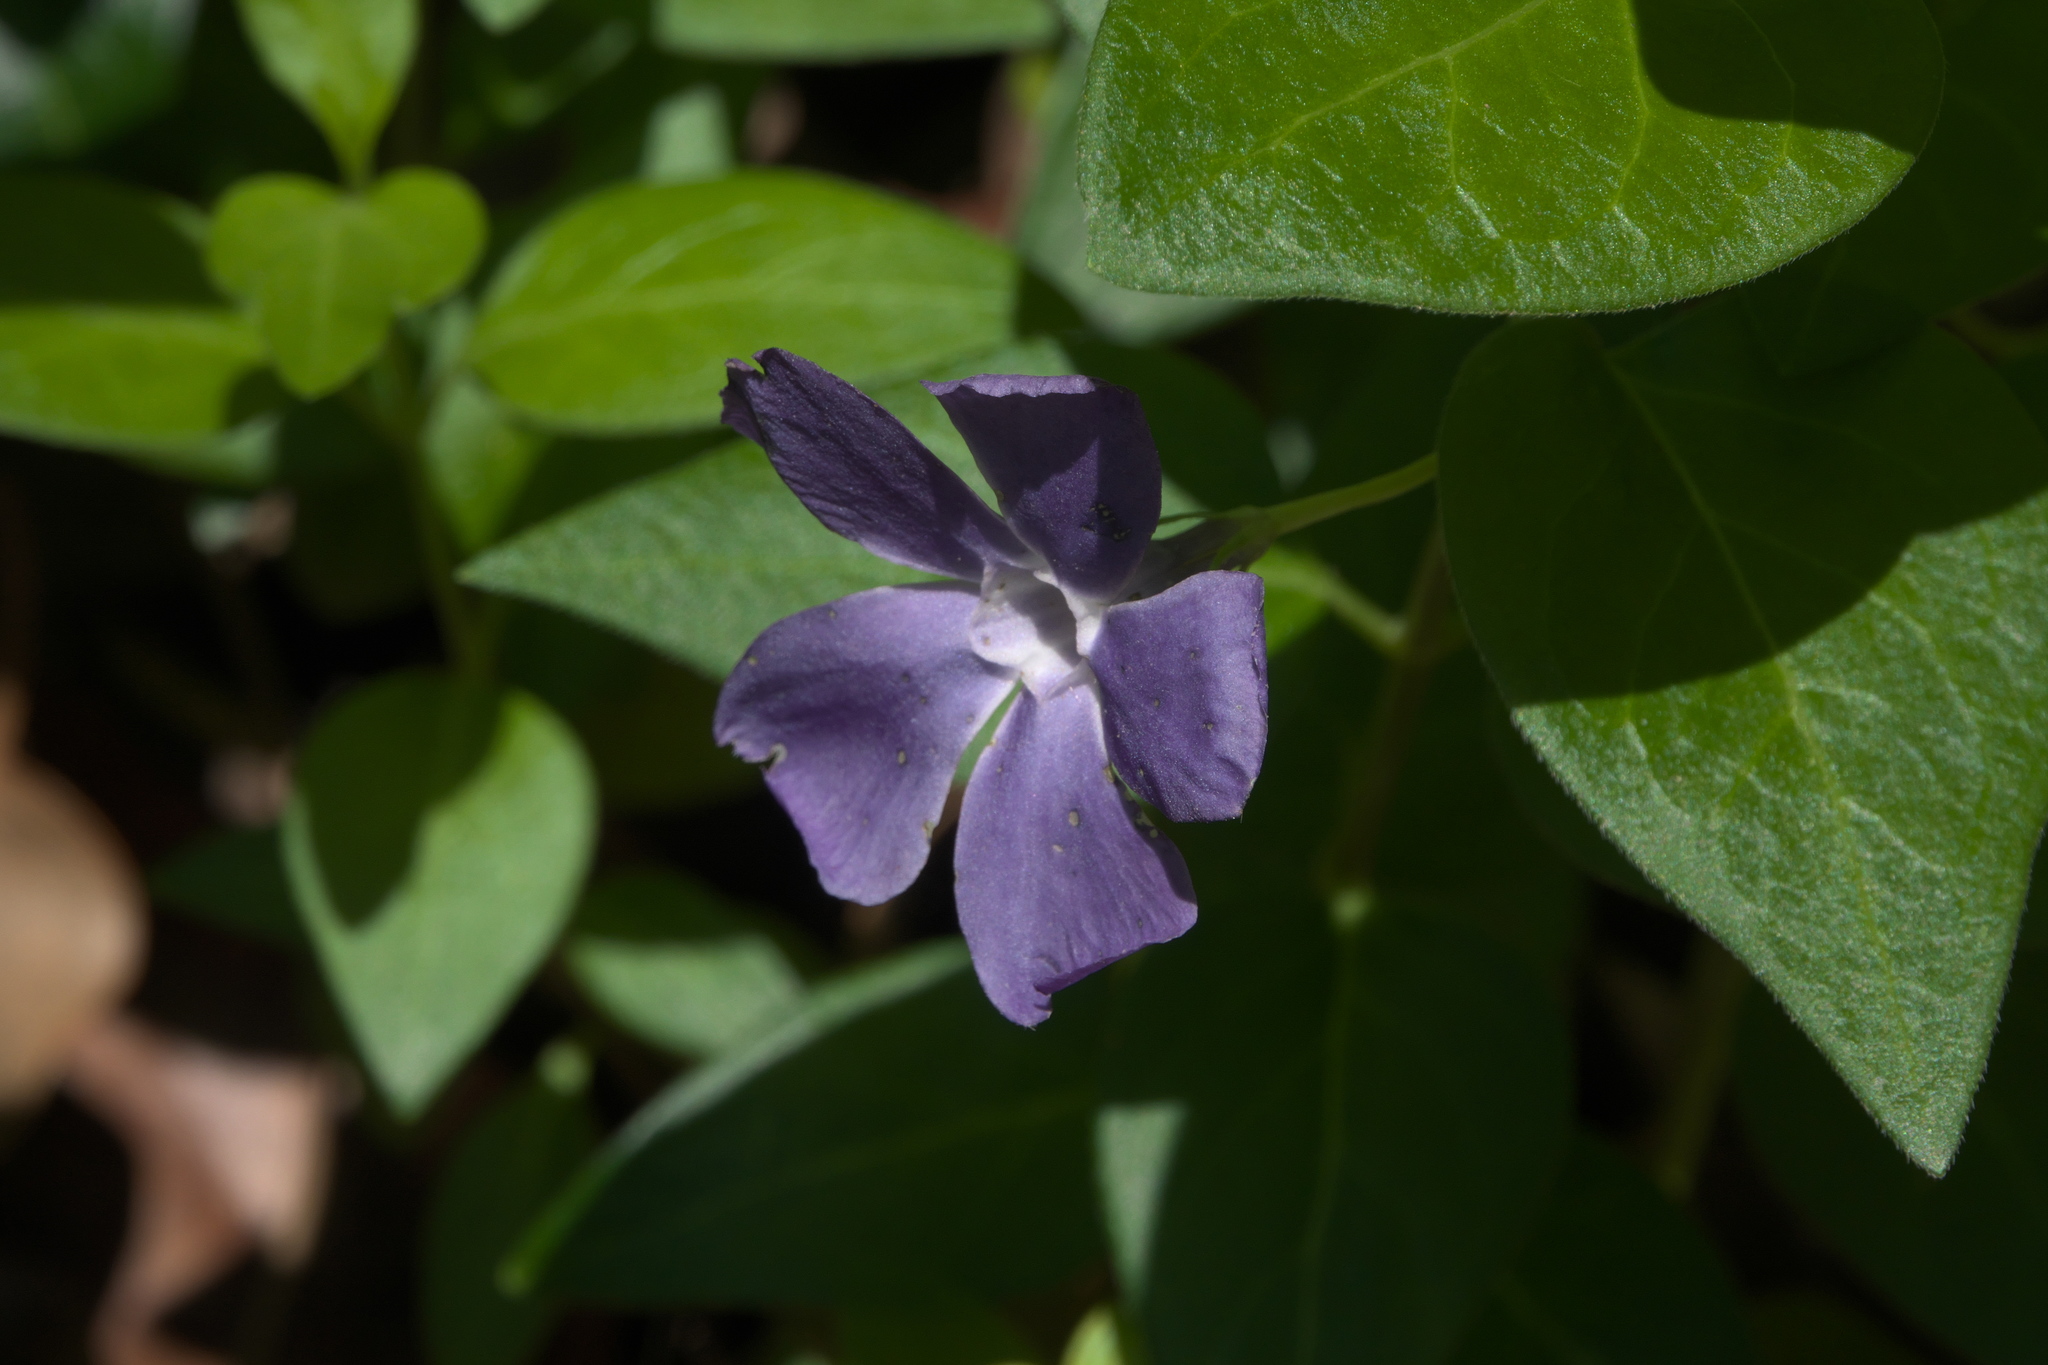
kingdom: Plantae
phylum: Tracheophyta
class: Magnoliopsida
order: Gentianales
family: Apocynaceae
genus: Vinca
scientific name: Vinca major
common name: Greater periwinkle
